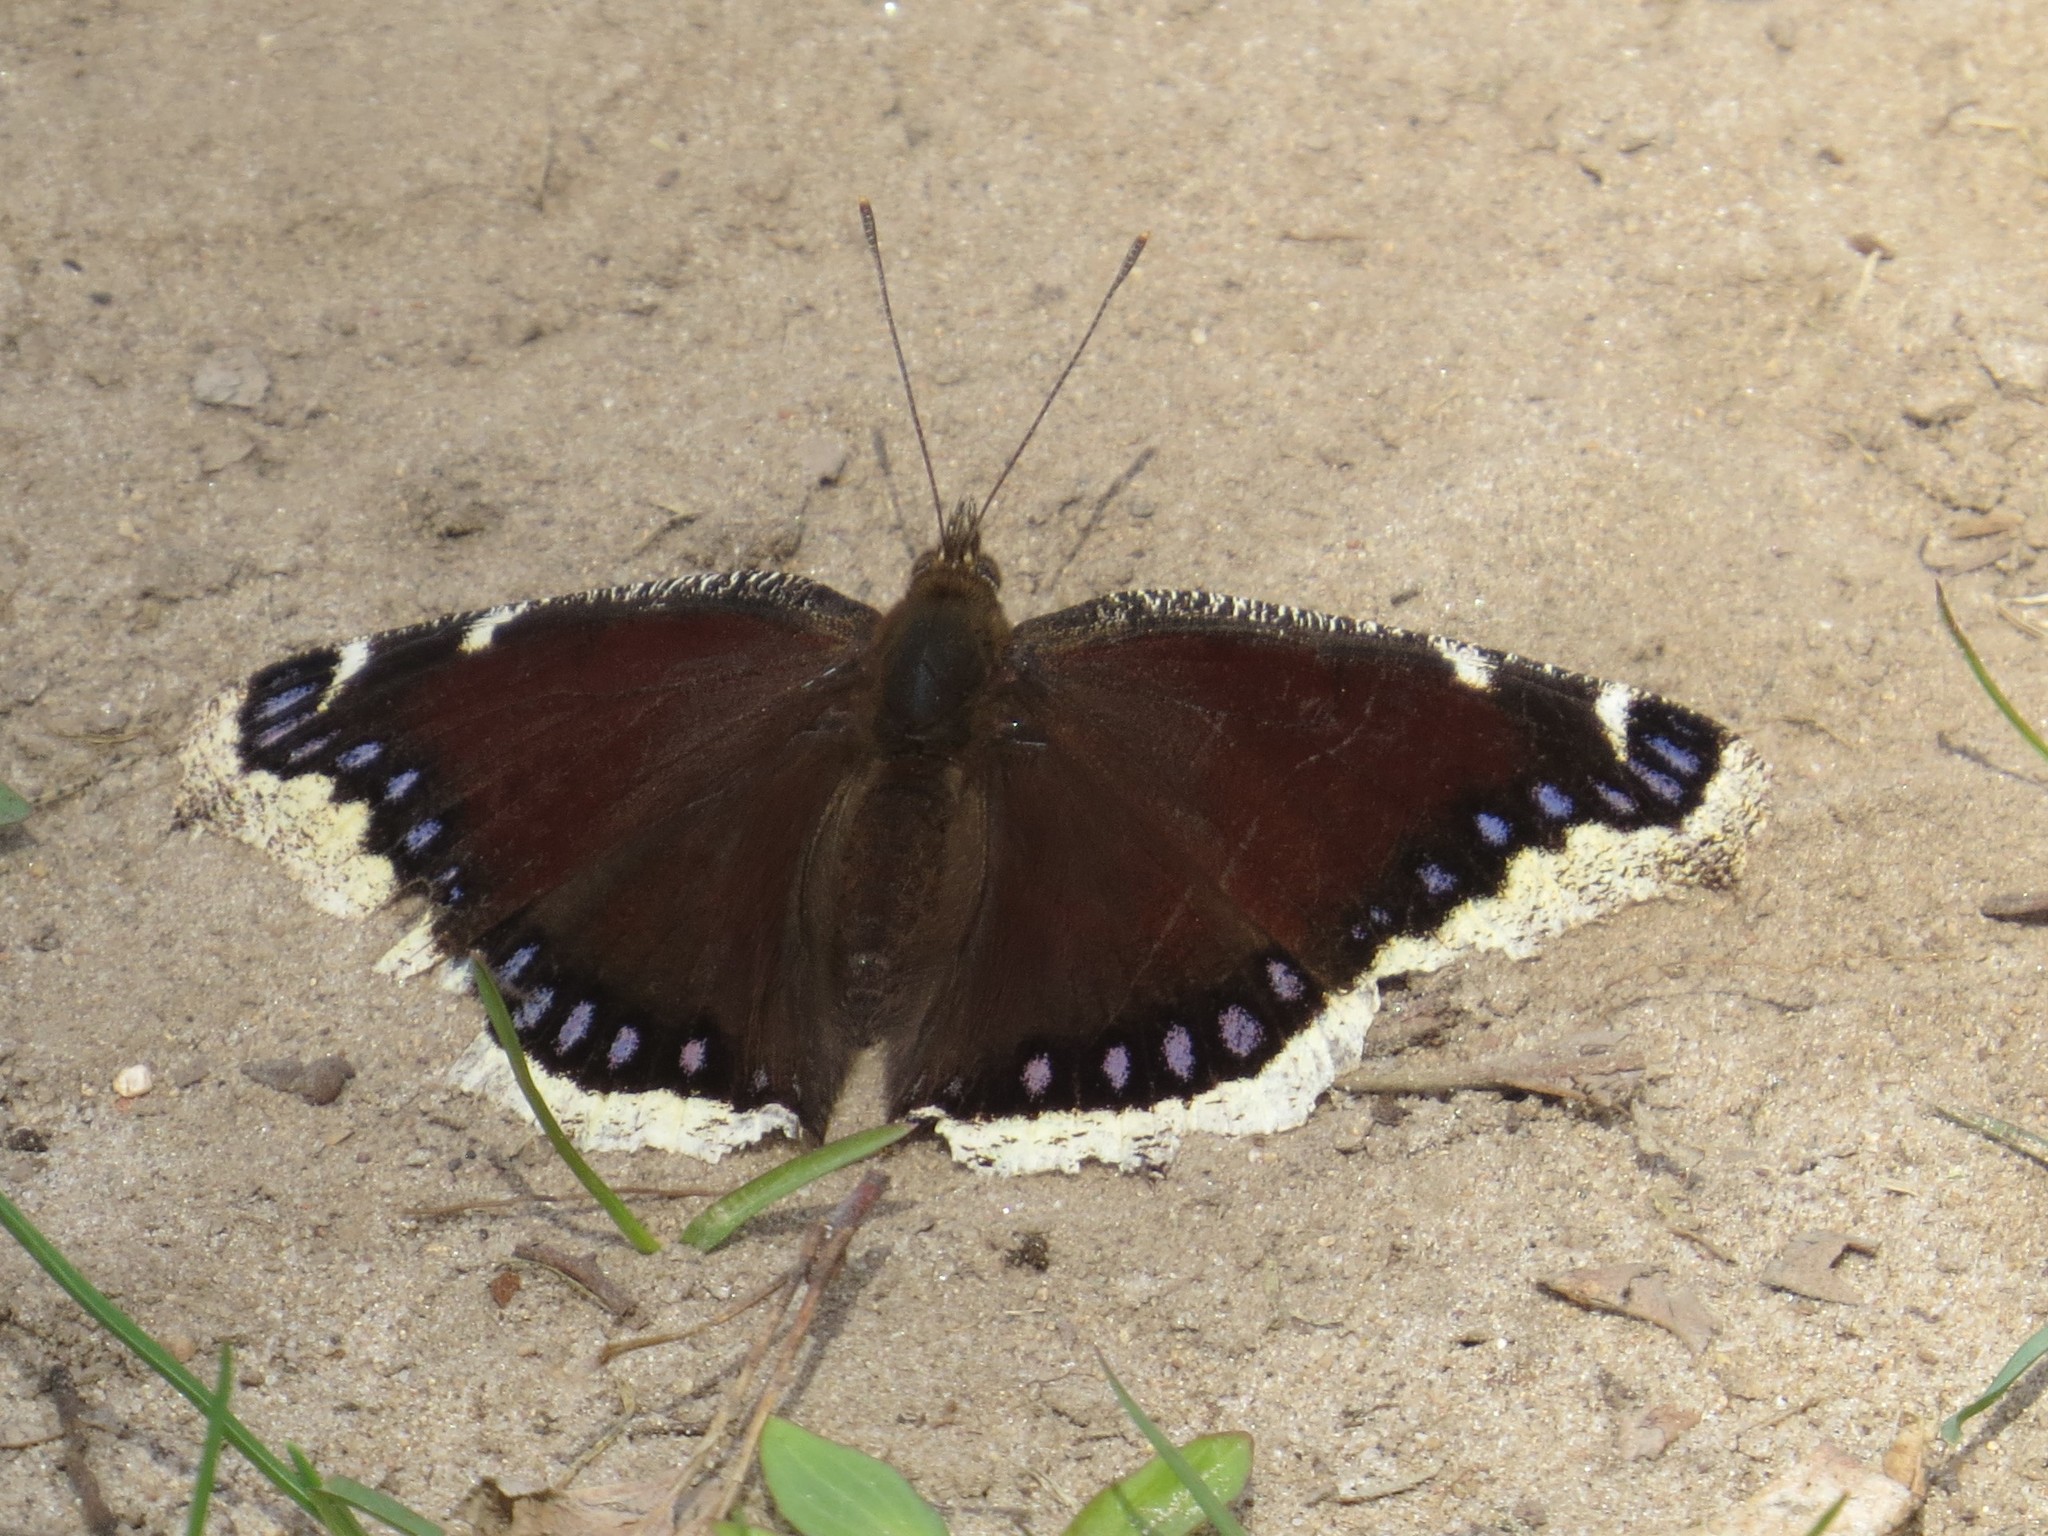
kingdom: Animalia
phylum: Arthropoda
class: Insecta
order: Lepidoptera
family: Nymphalidae
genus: Nymphalis
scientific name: Nymphalis antiopa
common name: Camberwell beauty
